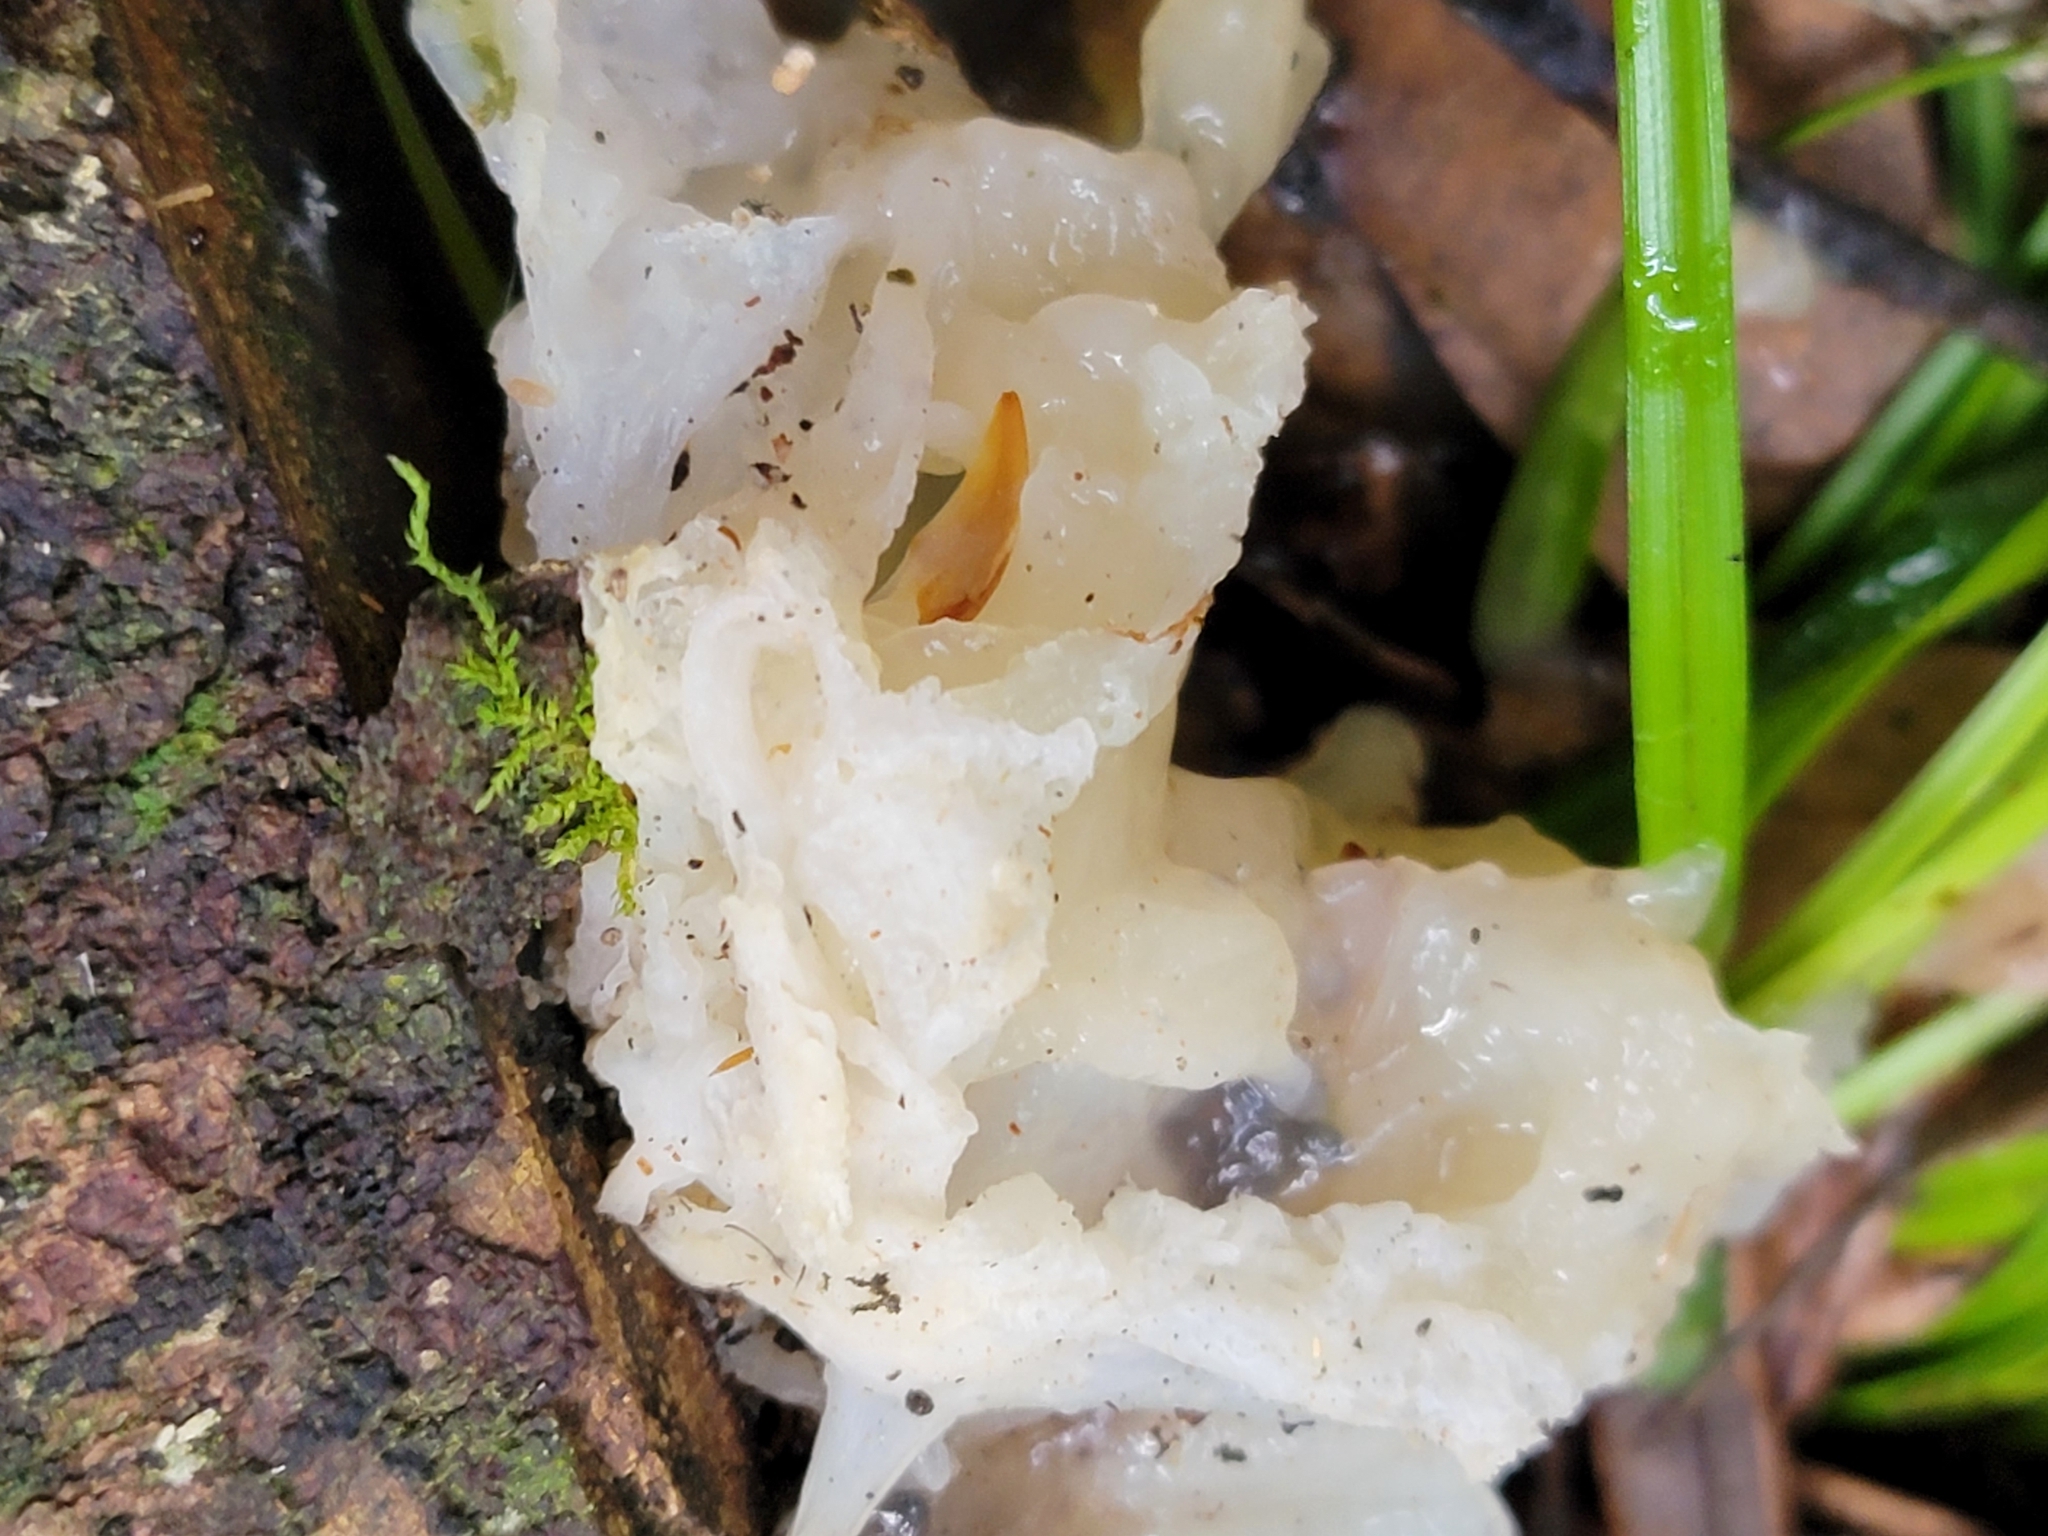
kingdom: Fungi
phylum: Basidiomycota
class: Tremellomycetes
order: Tremellales
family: Tremellaceae
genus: Tremella
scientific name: Tremella fuciformis
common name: Snow fungus
